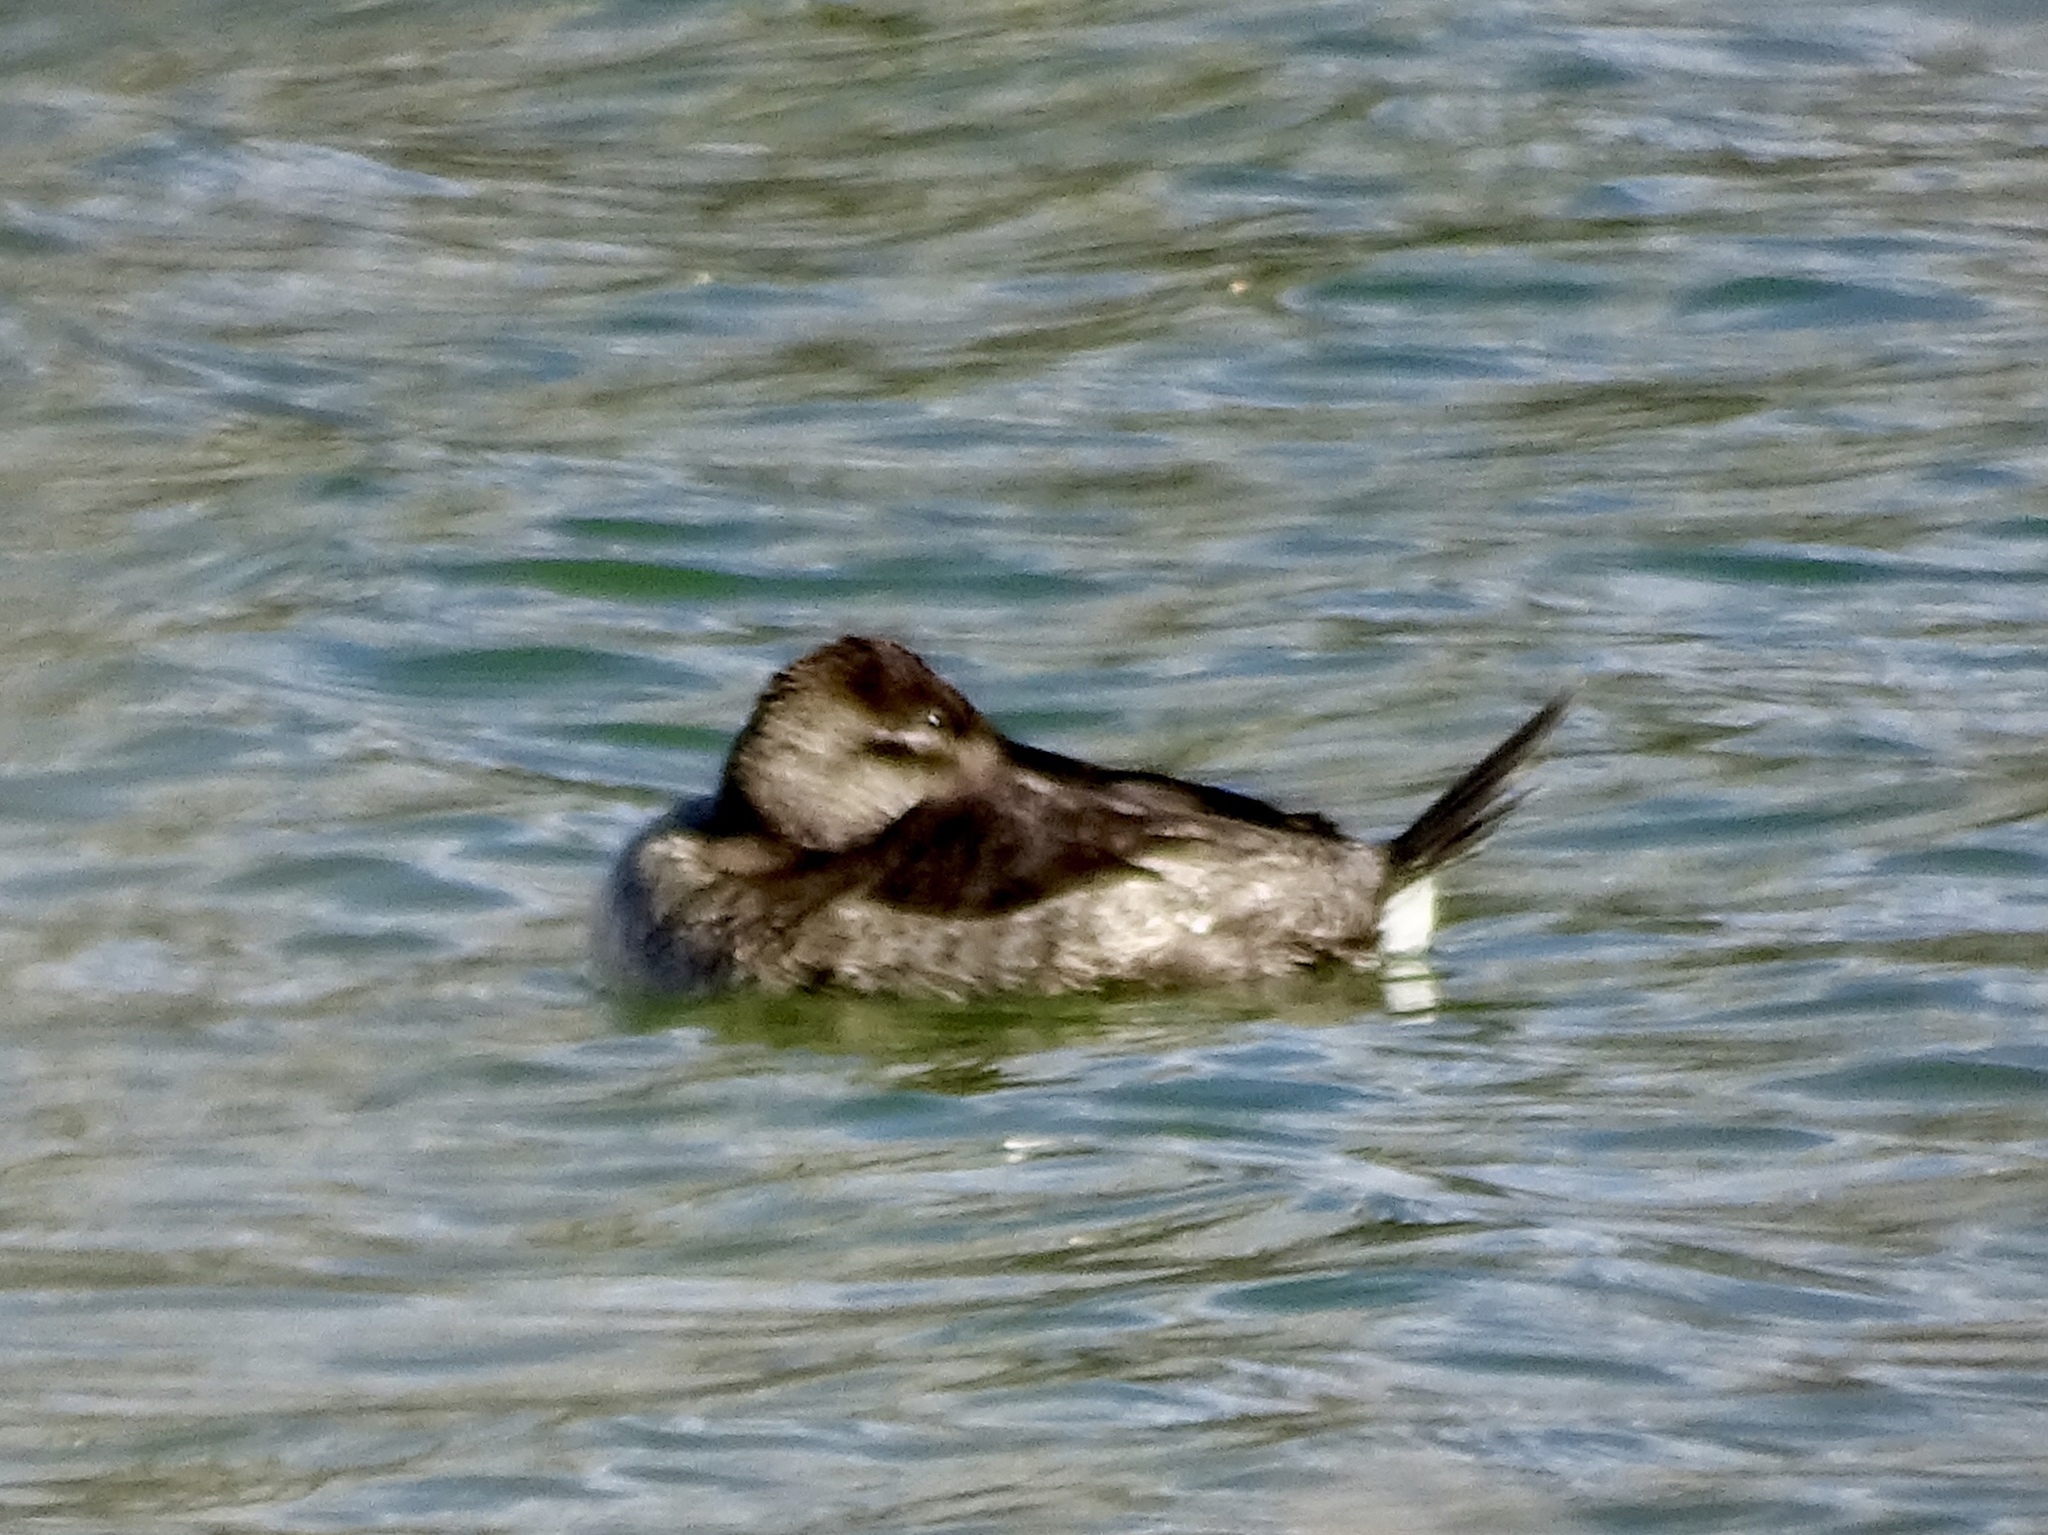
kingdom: Animalia
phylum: Chordata
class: Aves
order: Anseriformes
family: Anatidae
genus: Oxyura
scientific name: Oxyura jamaicensis
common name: Ruddy duck
